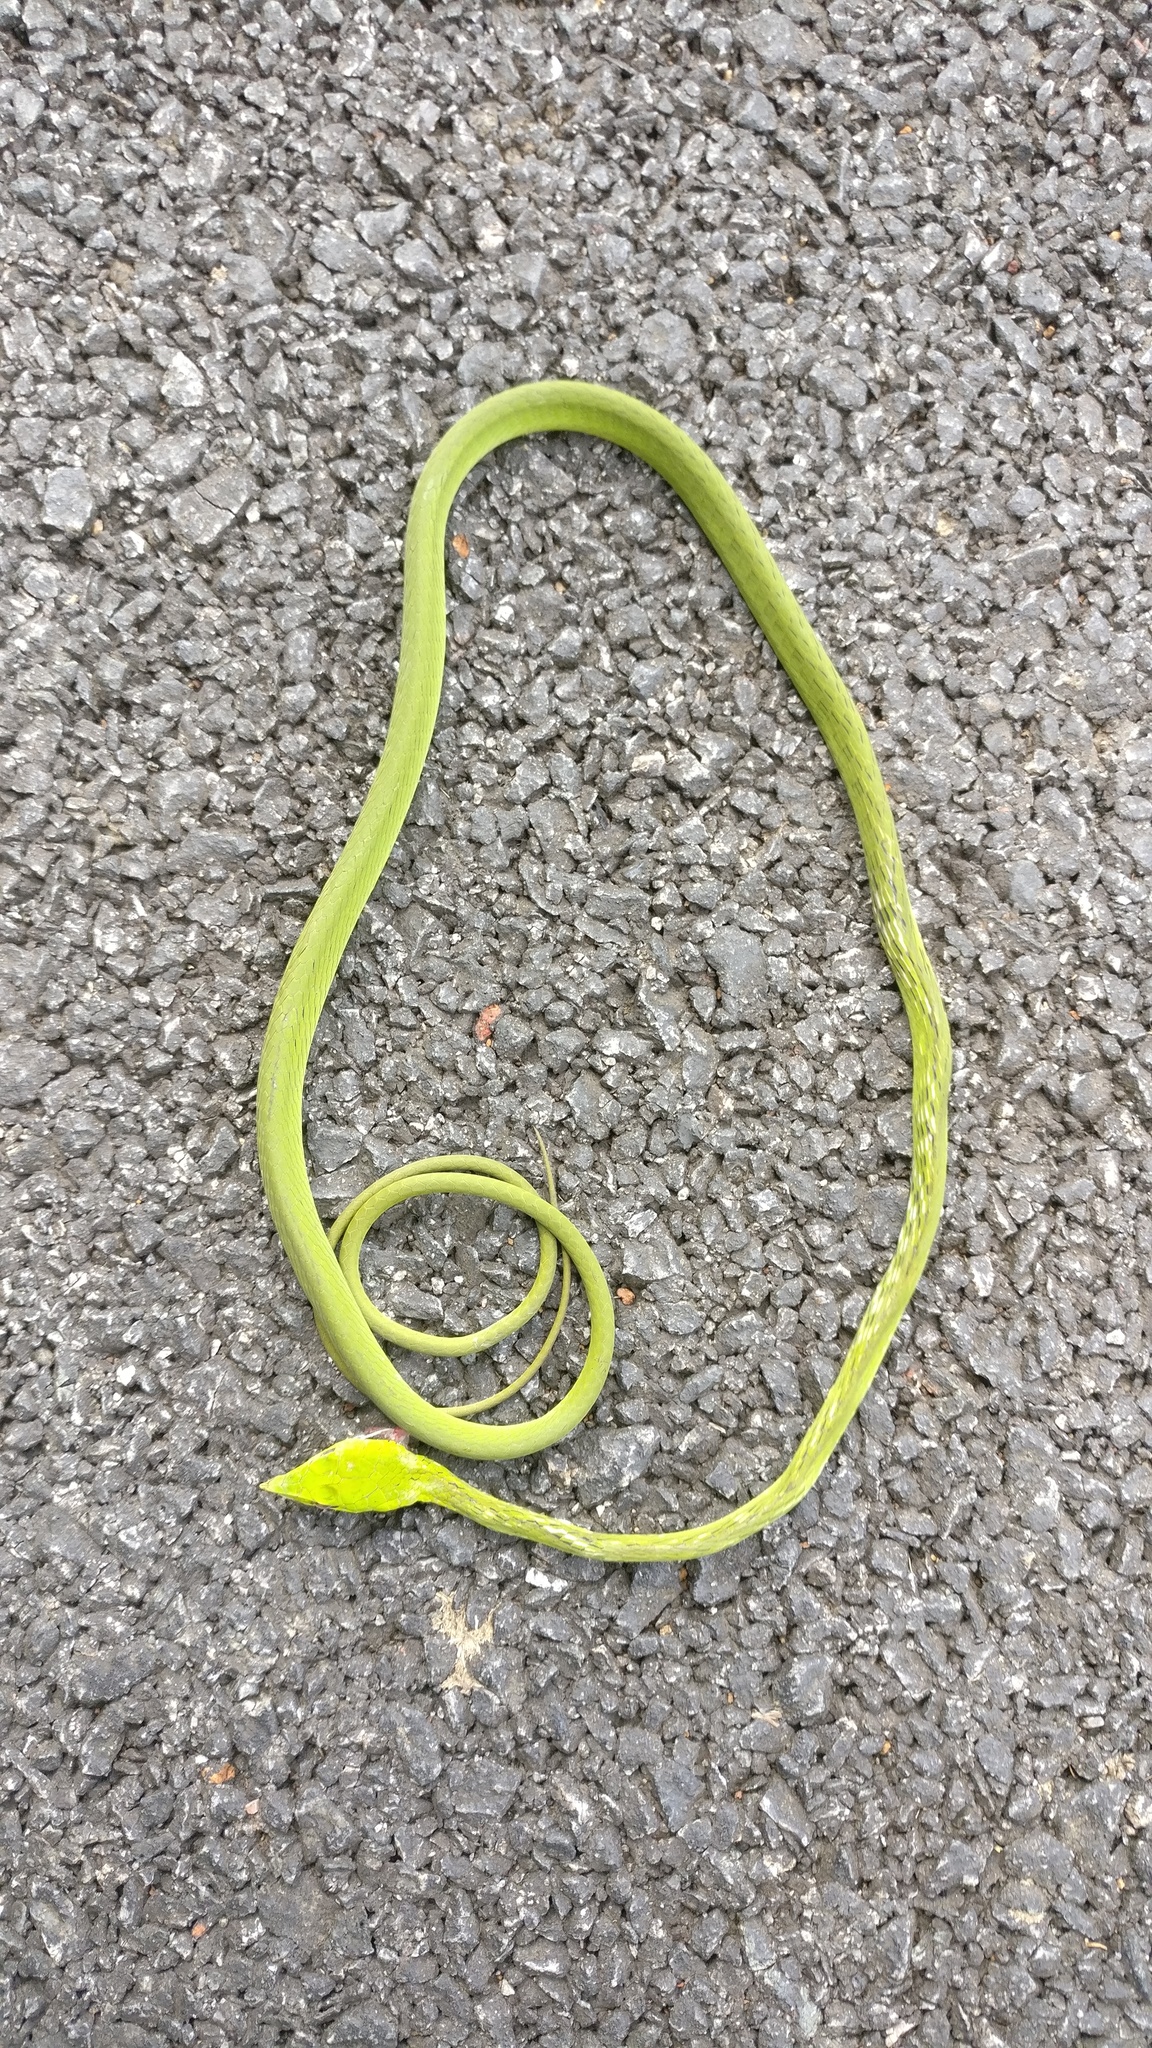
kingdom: Animalia
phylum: Chordata
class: Squamata
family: Colubridae
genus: Ahaetulla
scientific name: Ahaetulla borealis
